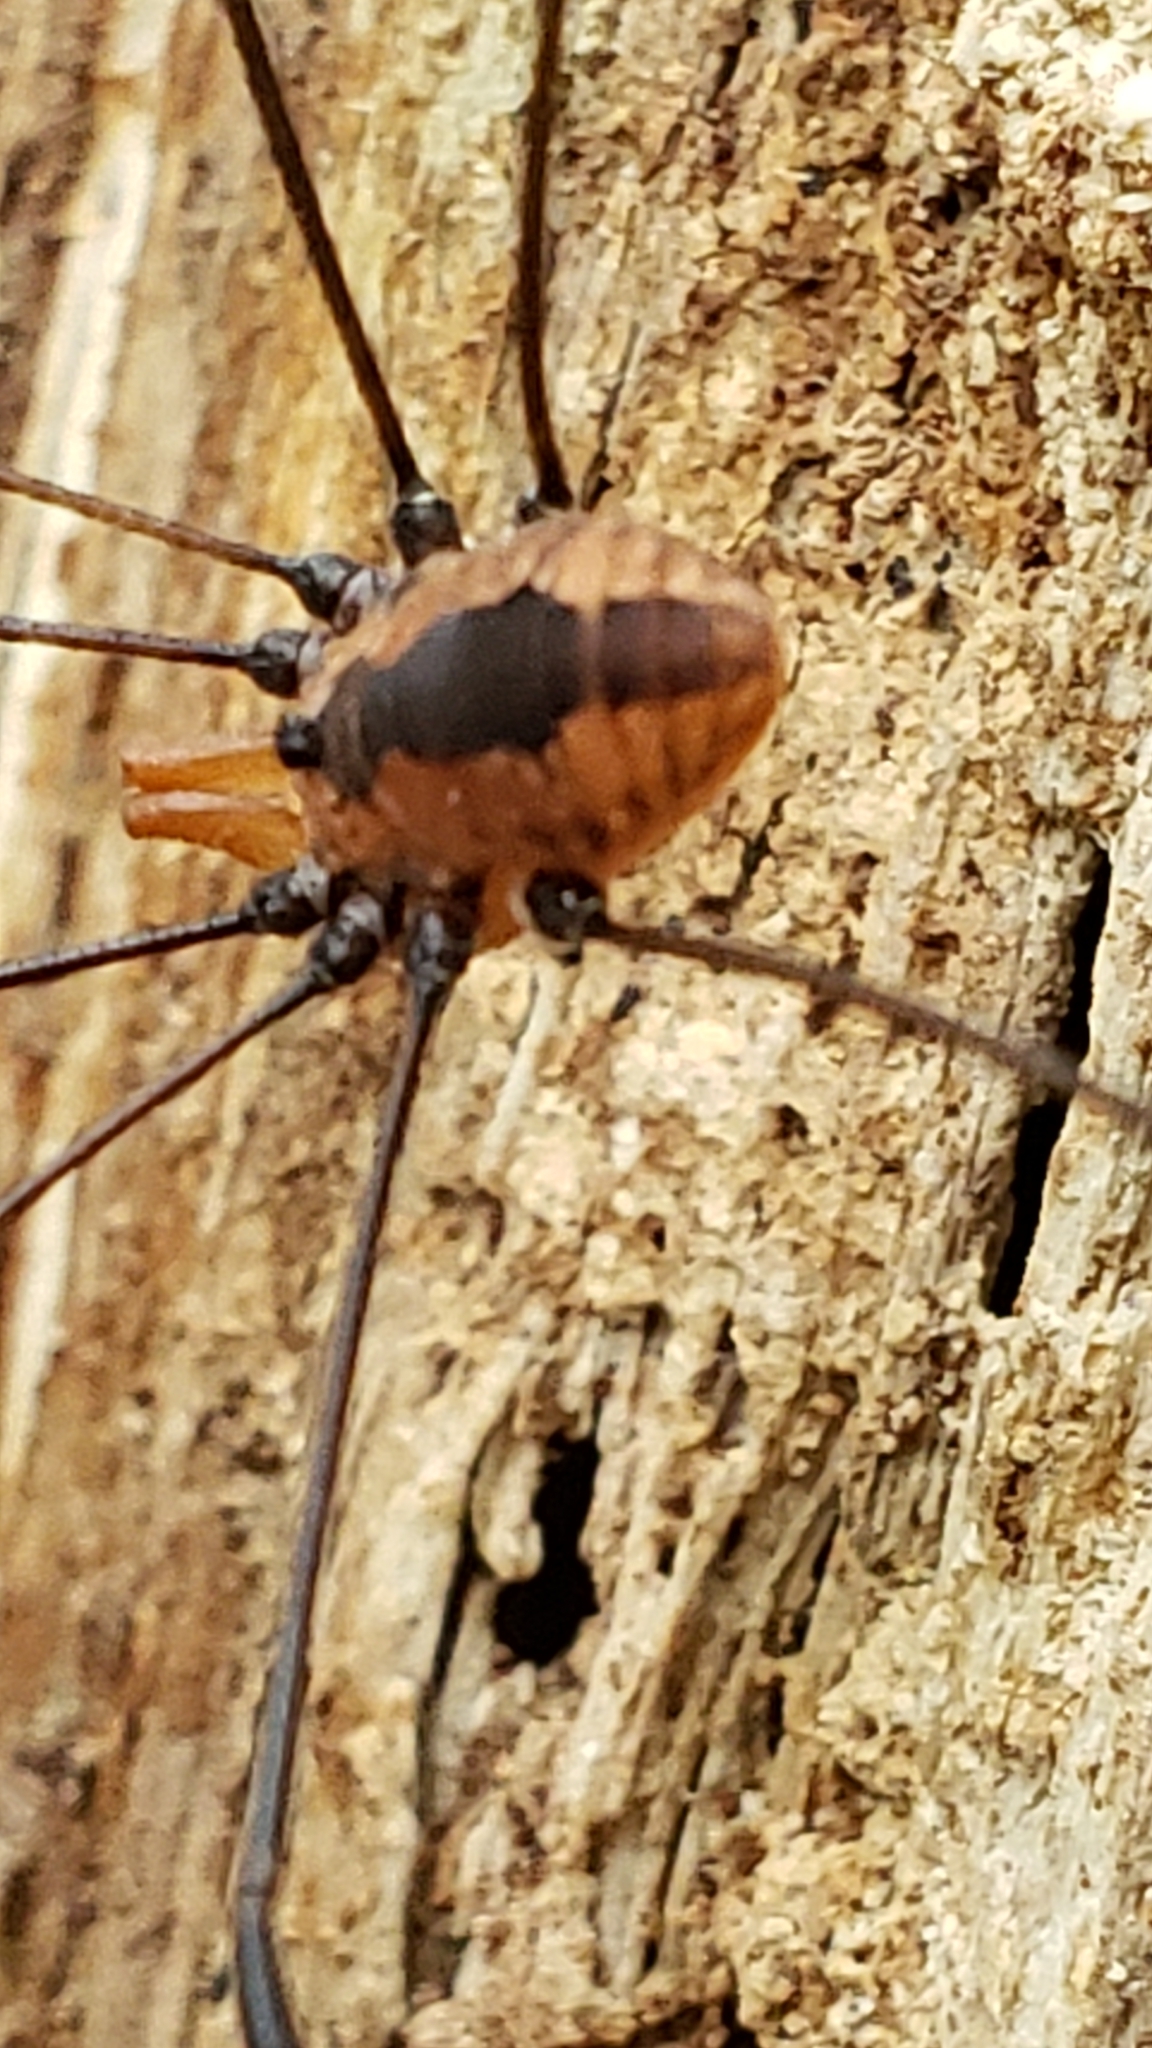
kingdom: Animalia
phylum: Arthropoda
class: Arachnida
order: Opiliones
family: Sclerosomatidae
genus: Leiobunum
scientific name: Leiobunum vittatum
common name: Eastern harvestman
